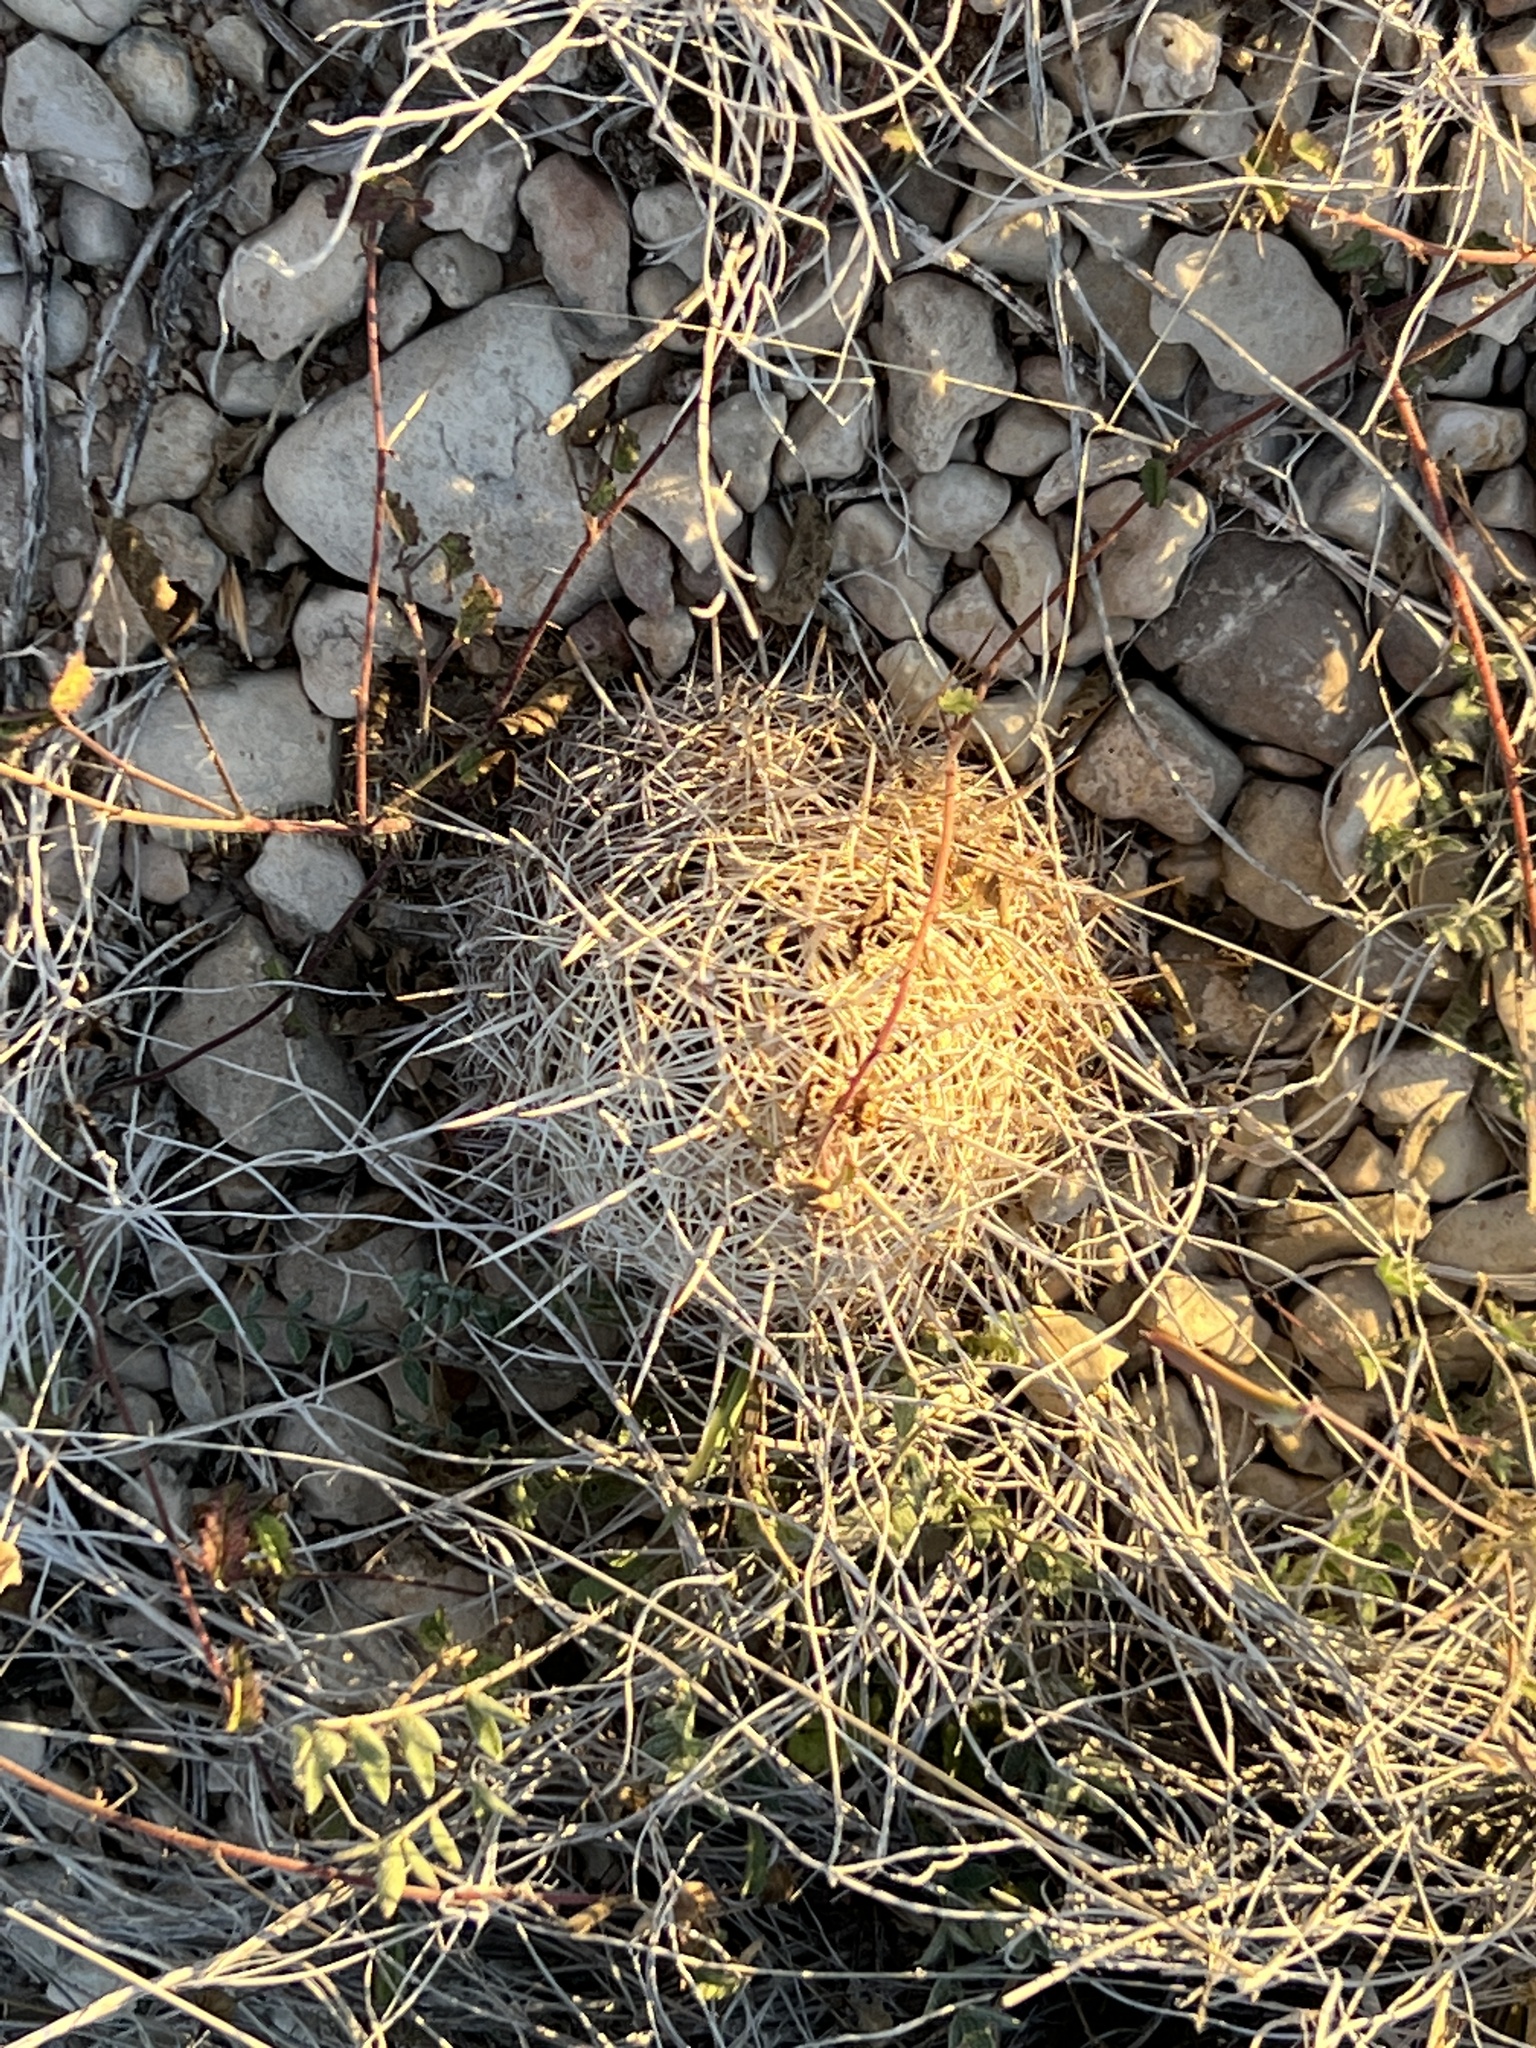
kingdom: Plantae
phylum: Tracheophyta
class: Magnoliopsida
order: Caryophyllales
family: Cactaceae
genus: Coryphantha
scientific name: Coryphantha echinus
